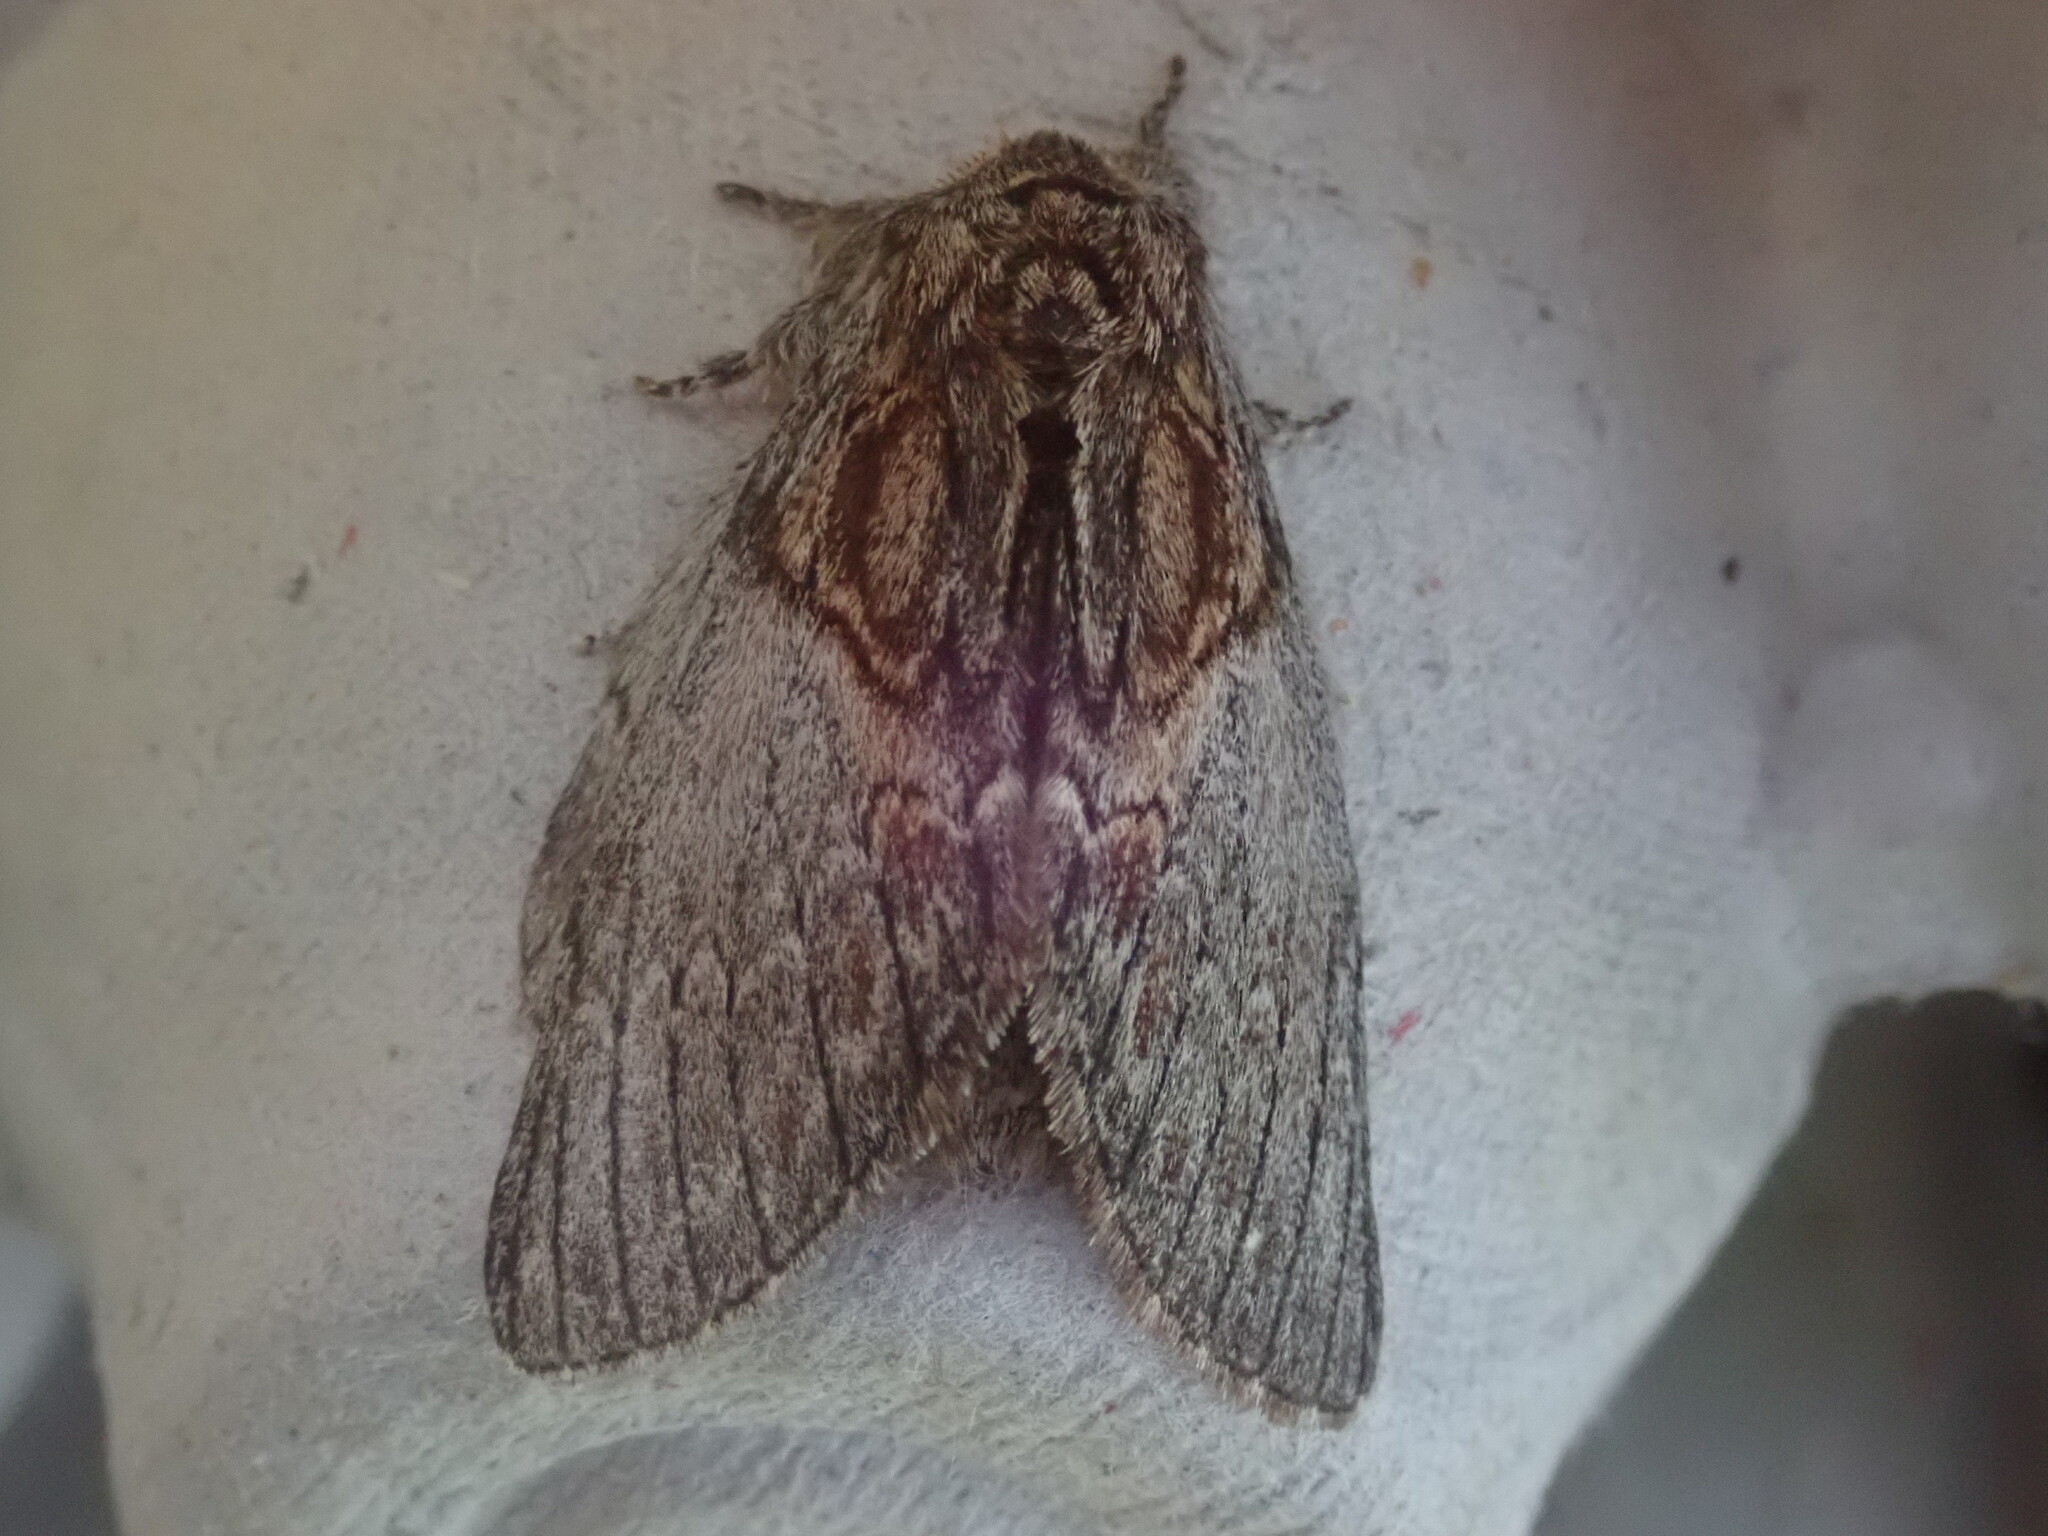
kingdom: Animalia
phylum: Arthropoda
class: Insecta
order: Lepidoptera
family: Notodontidae
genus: Peridea
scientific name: Peridea basitriens
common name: Oval-based prominent
